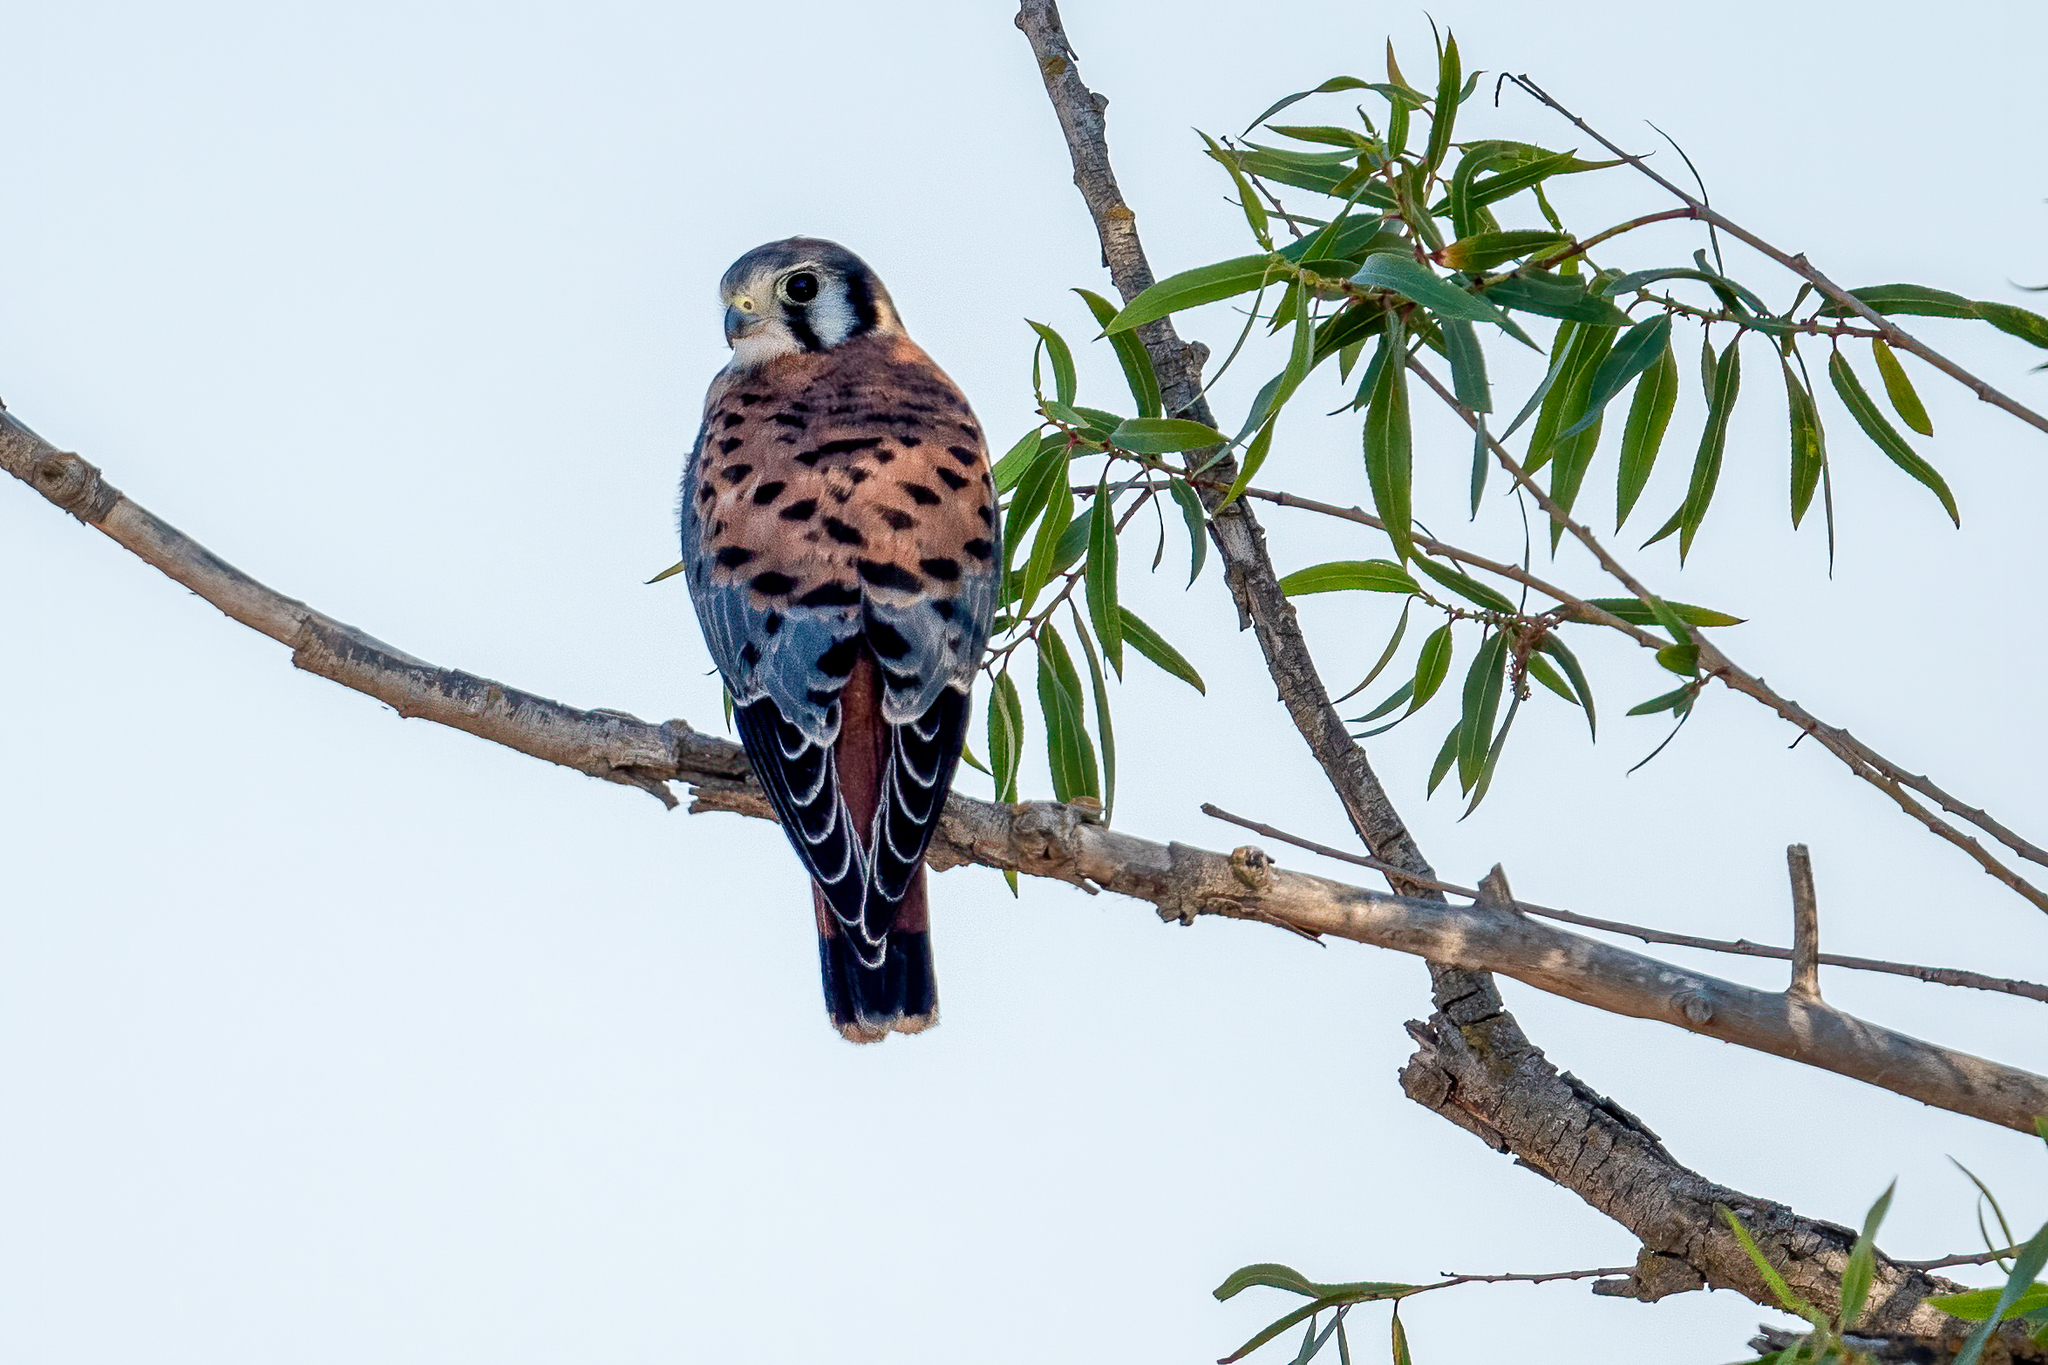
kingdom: Animalia
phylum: Chordata
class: Aves
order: Falconiformes
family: Falconidae
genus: Falco
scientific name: Falco sparverius
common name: American kestrel
